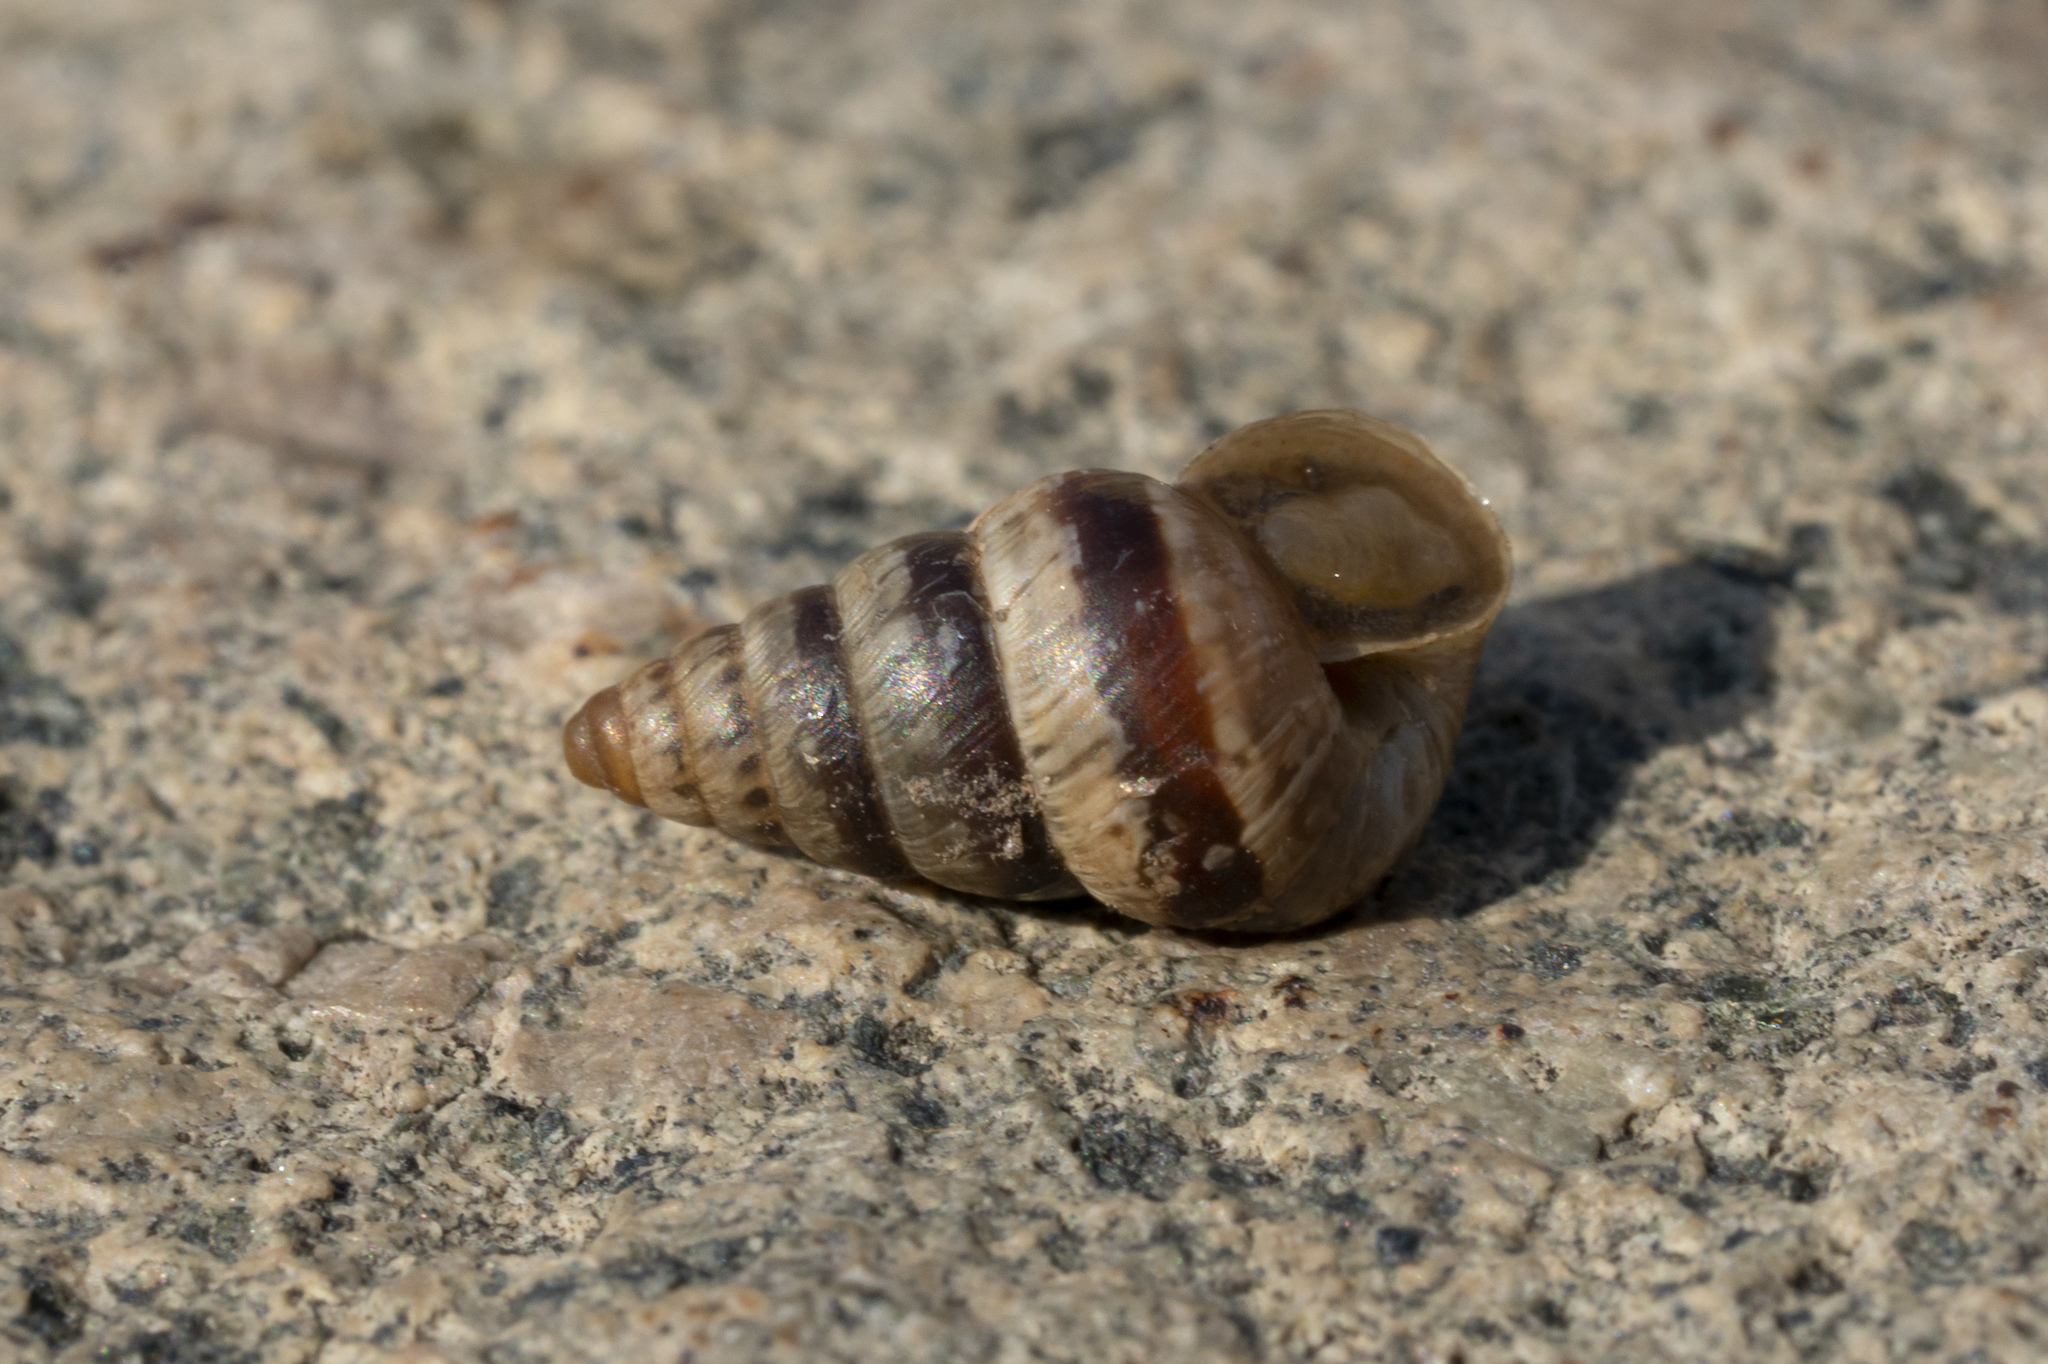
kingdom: Animalia
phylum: Mollusca
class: Gastropoda
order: Stylommatophora
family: Geomitridae
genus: Cochlicella
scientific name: Cochlicella barbara
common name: Potbellied helicellid
